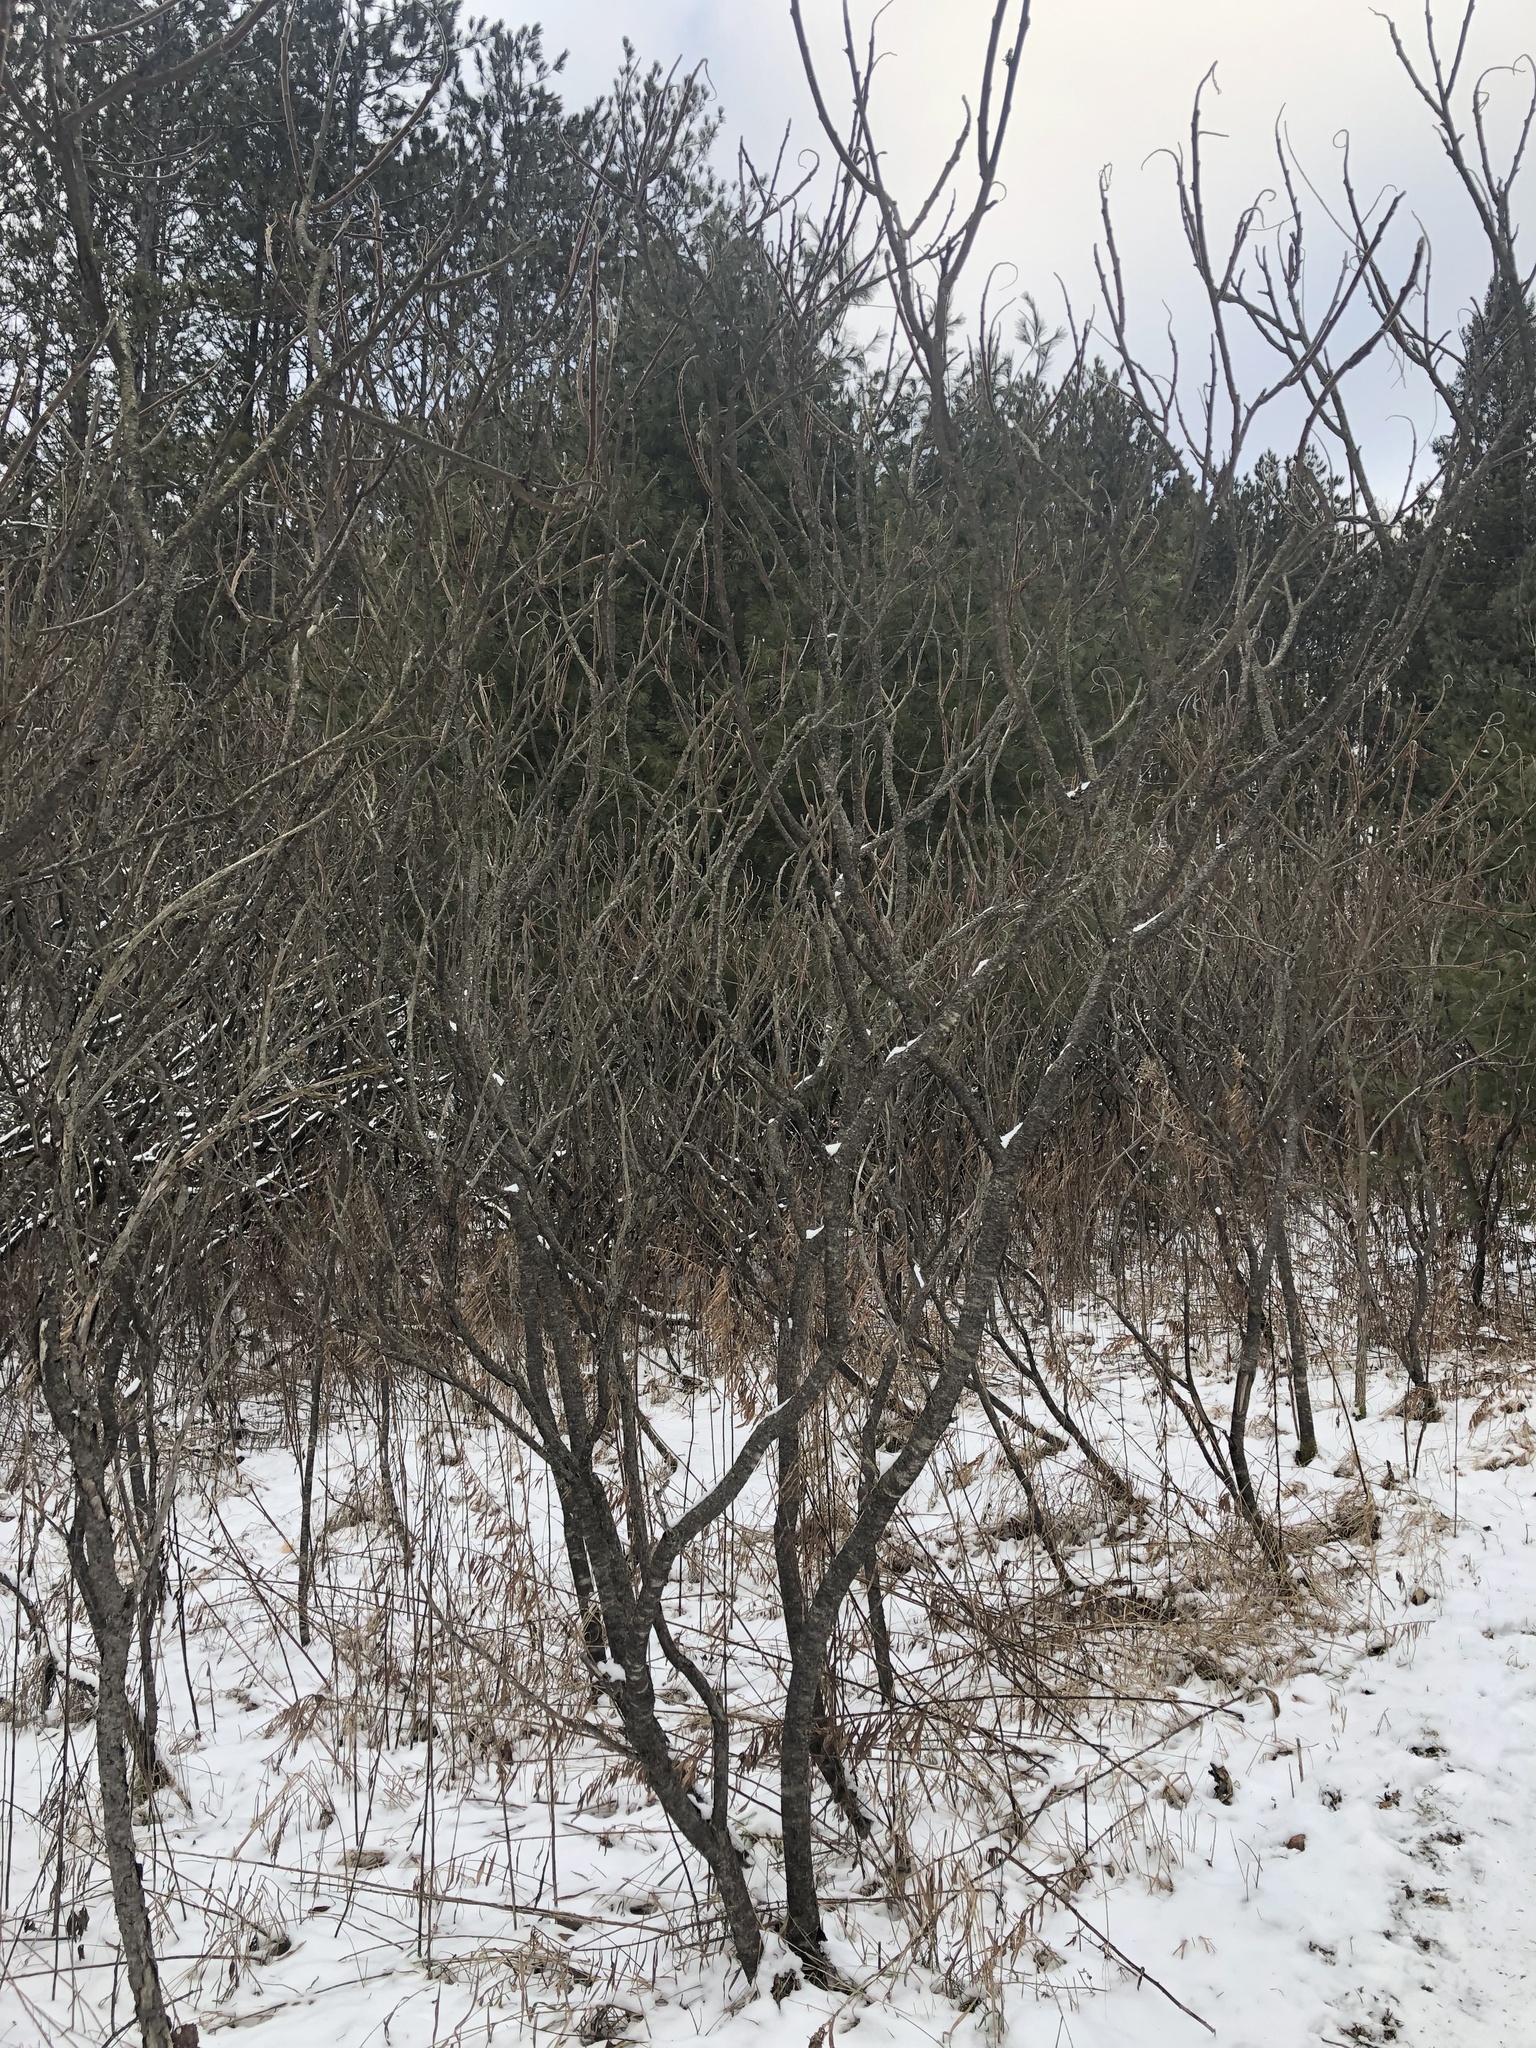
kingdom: Plantae
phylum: Tracheophyta
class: Magnoliopsida
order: Sapindales
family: Anacardiaceae
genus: Rhus
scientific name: Rhus typhina
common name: Staghorn sumac
